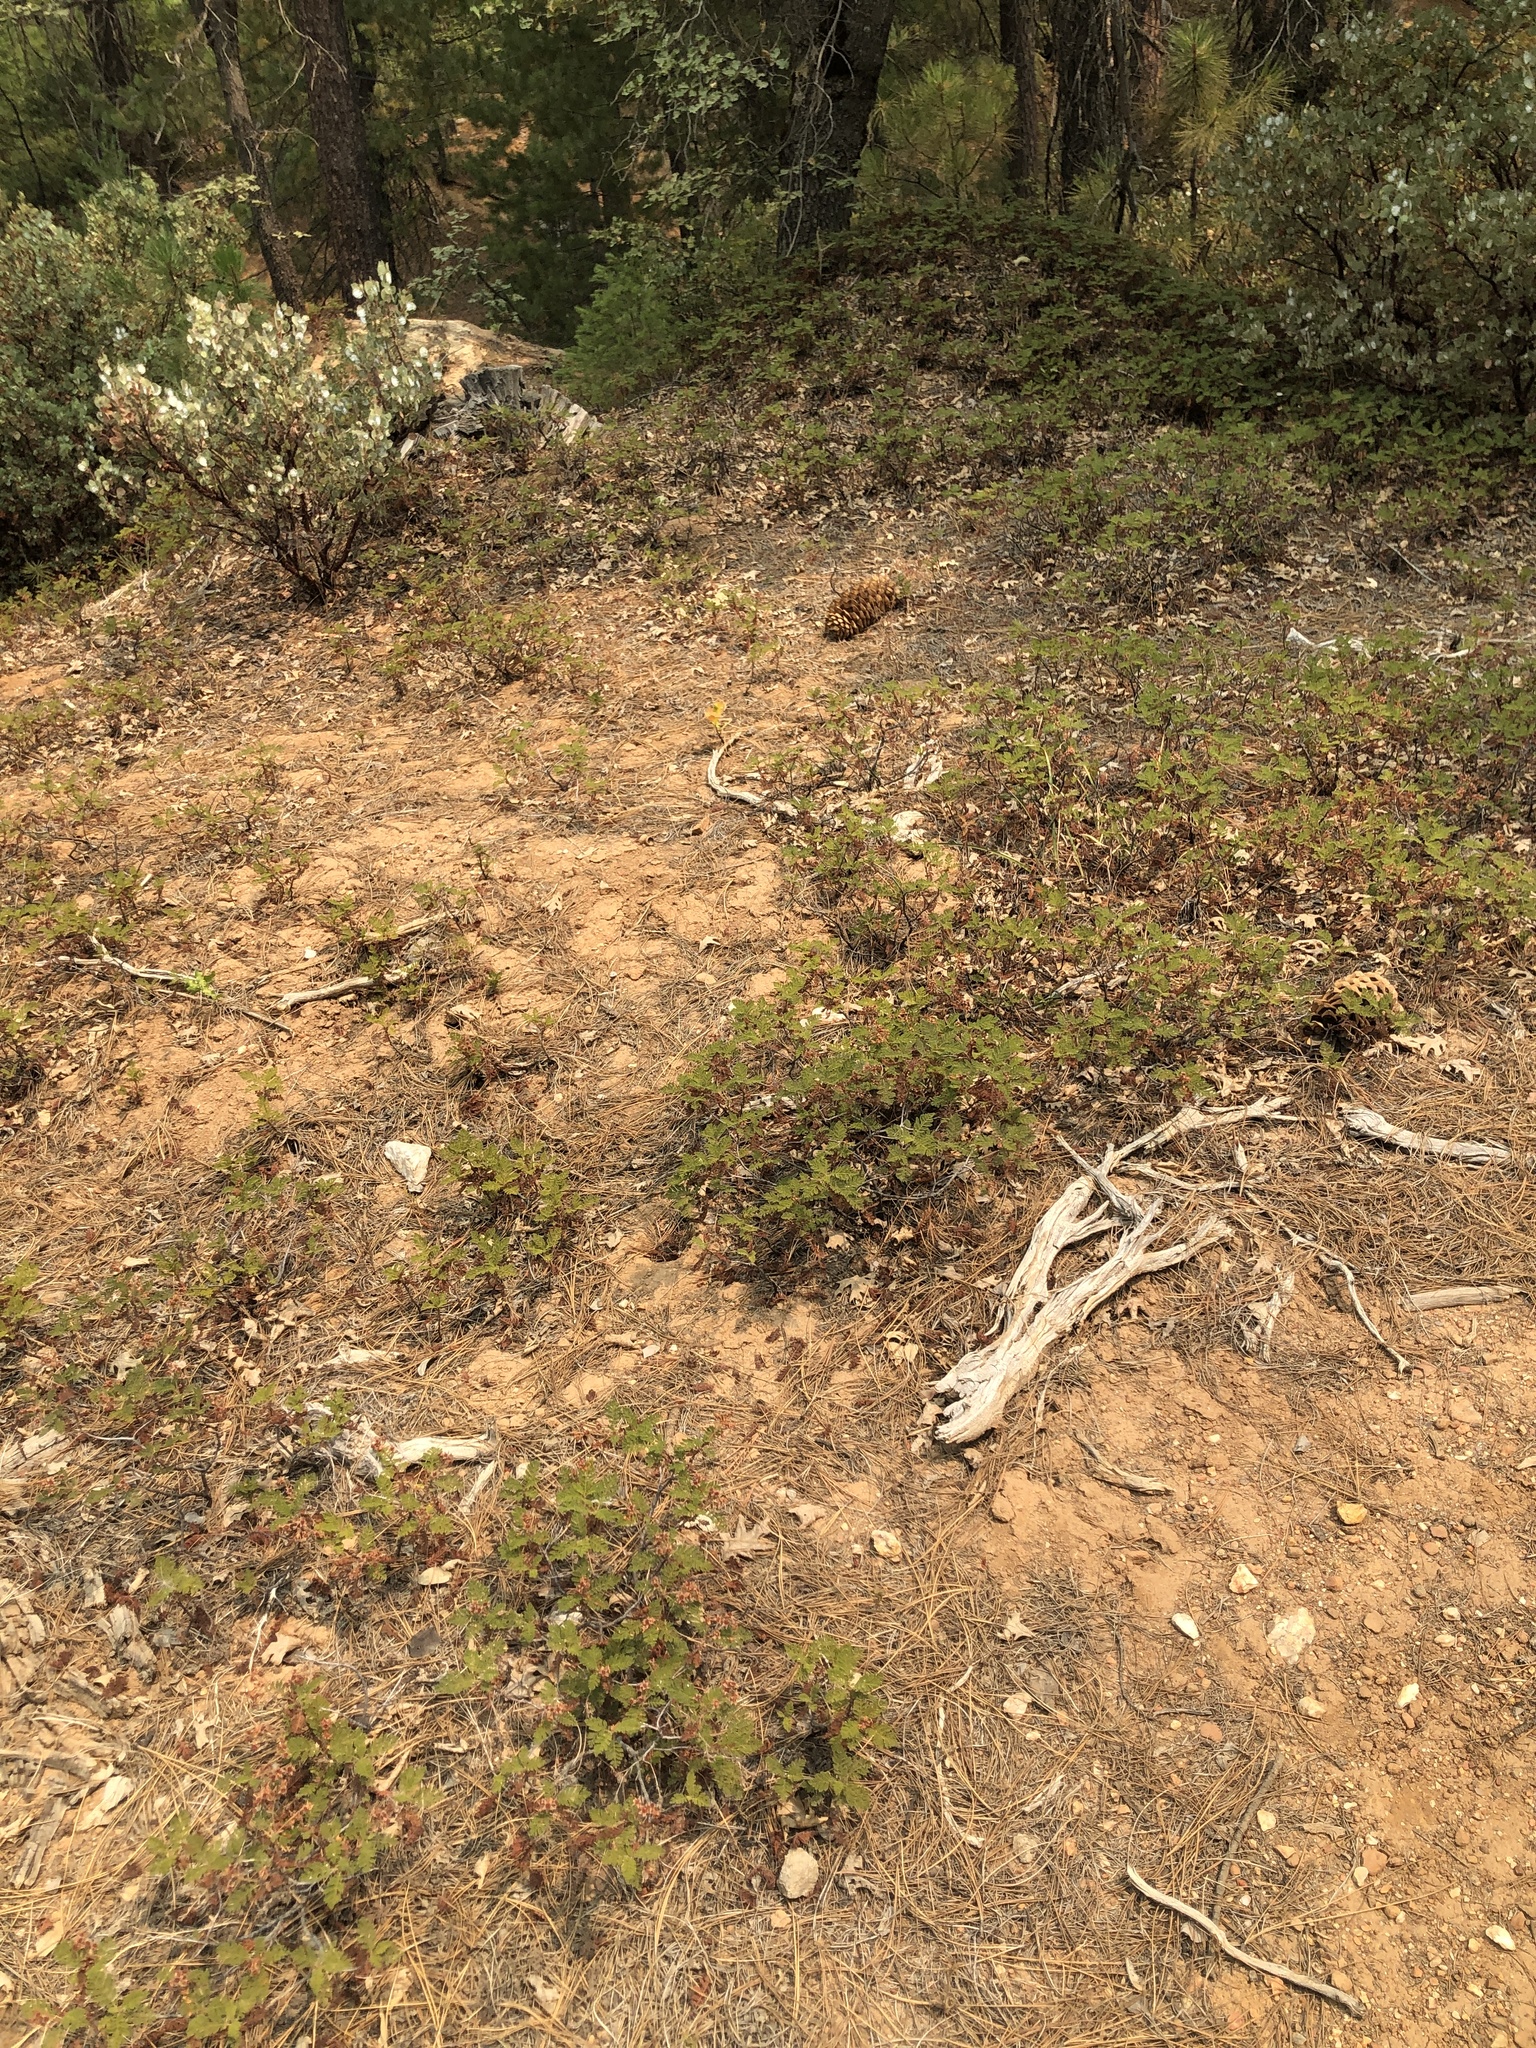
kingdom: Plantae
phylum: Tracheophyta
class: Magnoliopsida
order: Rosales
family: Rosaceae
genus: Chamaebatia
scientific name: Chamaebatia foliolosa
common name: Mountain misery
